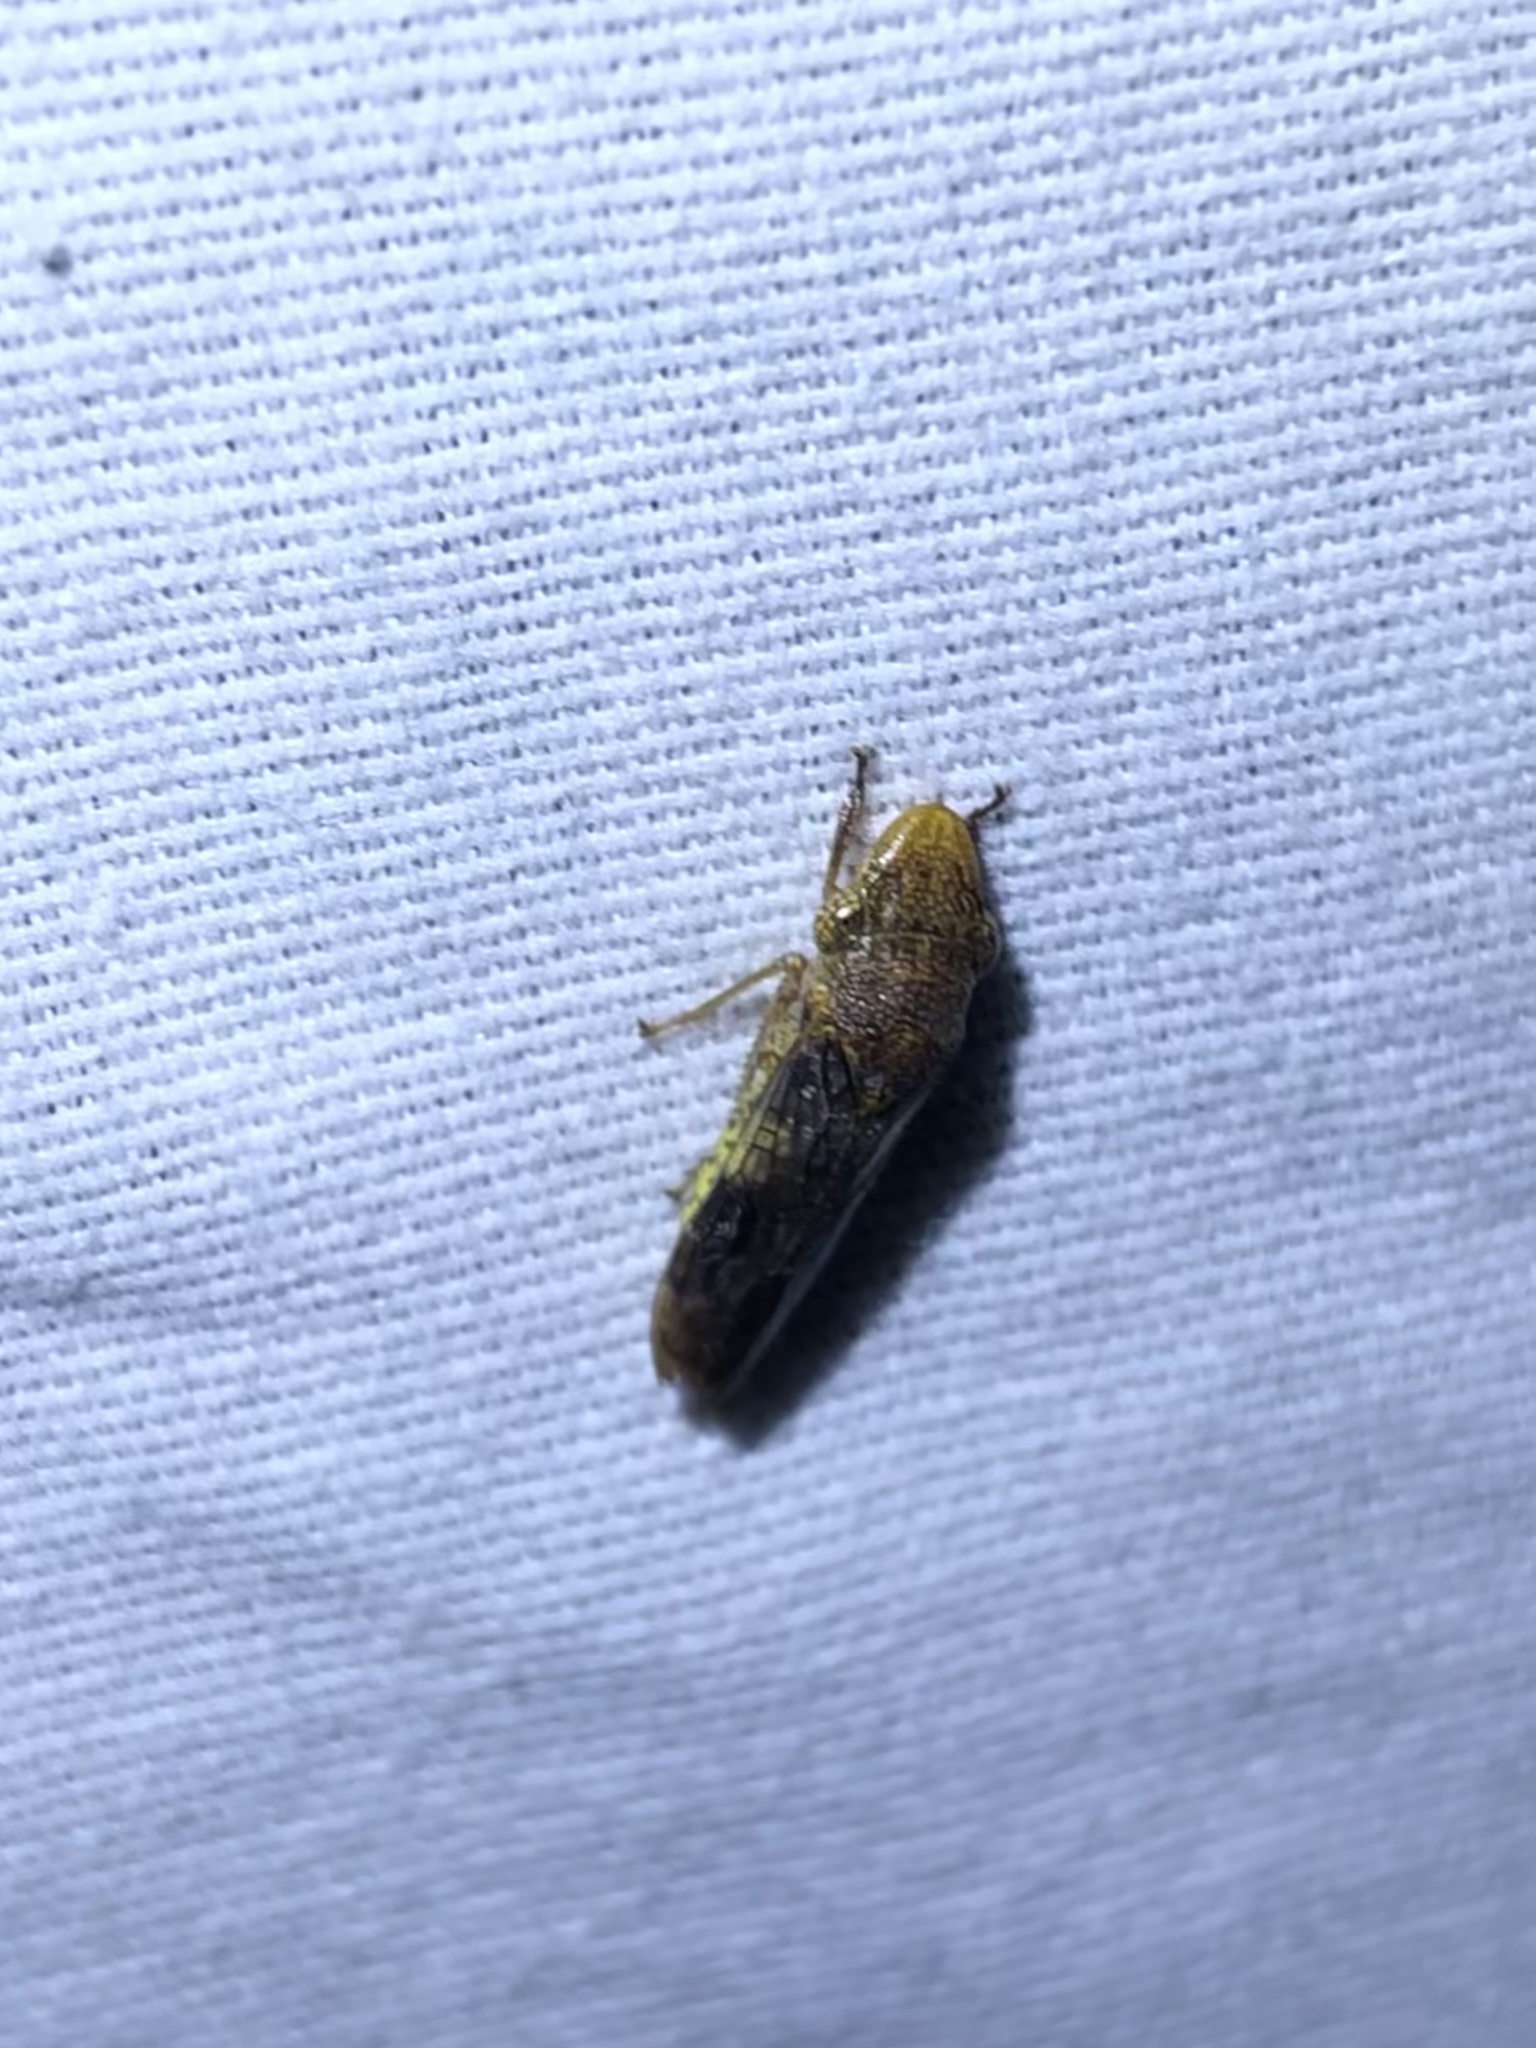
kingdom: Animalia
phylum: Arthropoda
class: Insecta
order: Hemiptera
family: Cicadellidae
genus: Homalodisca
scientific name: Homalodisca vitripennis
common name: Glassy-winged sharpshooter
